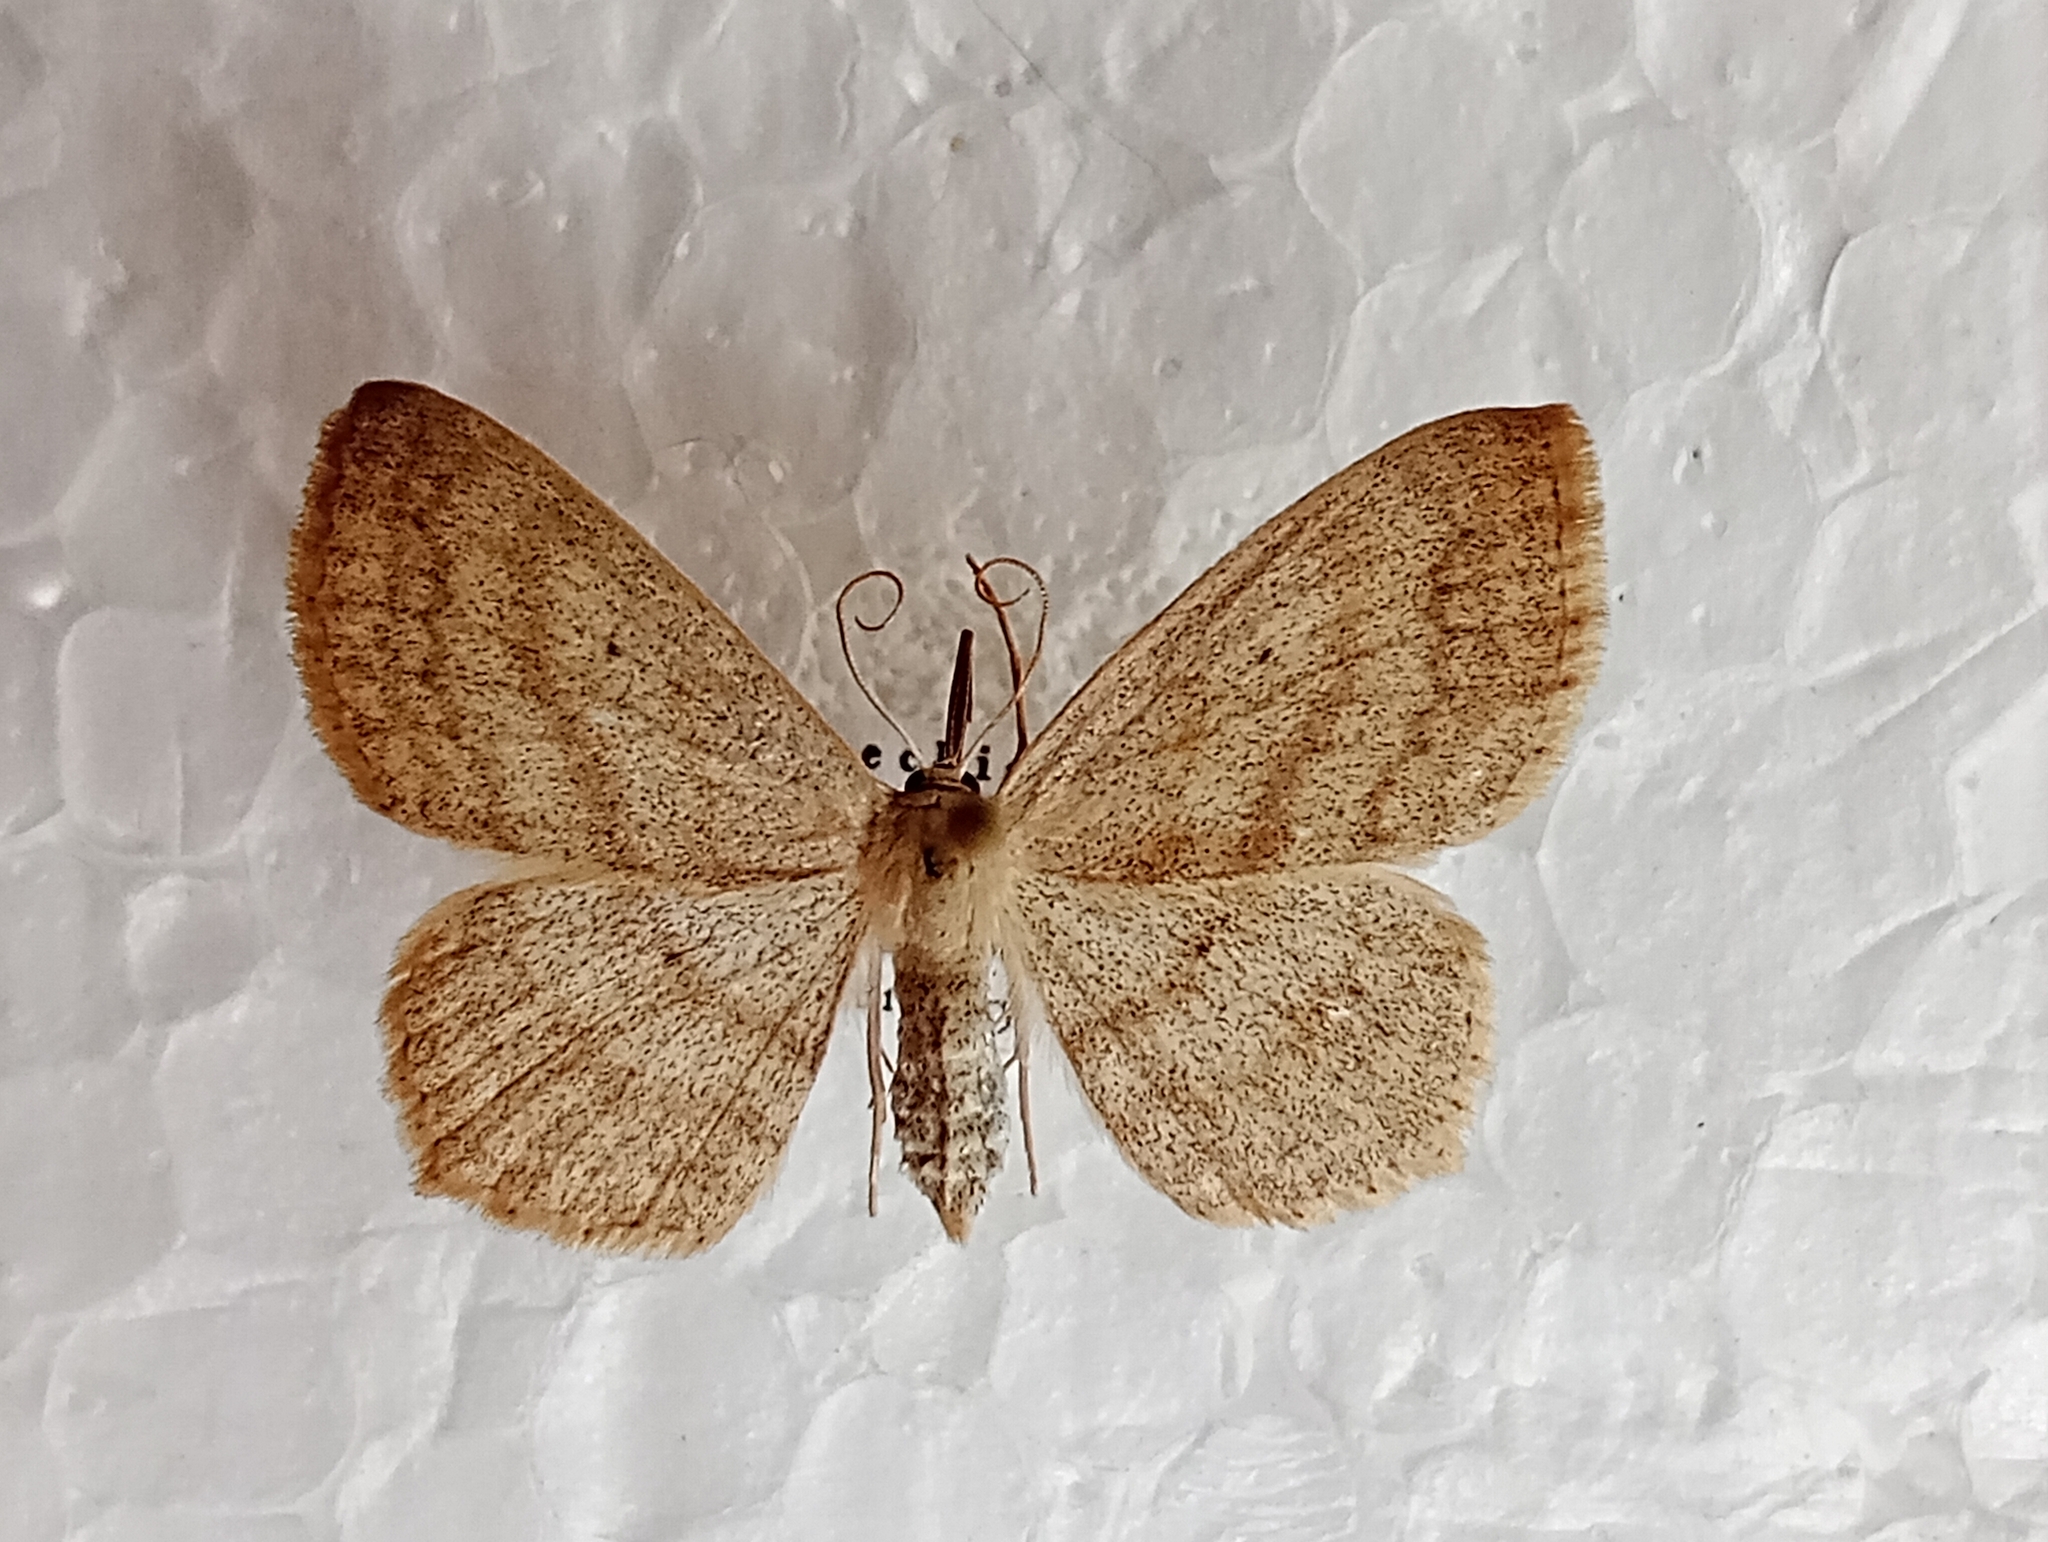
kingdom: Animalia
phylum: Arthropoda
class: Insecta
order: Lepidoptera
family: Geometridae
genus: Scopula
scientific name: Scopula nigropunctata
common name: Sub-angled wave
